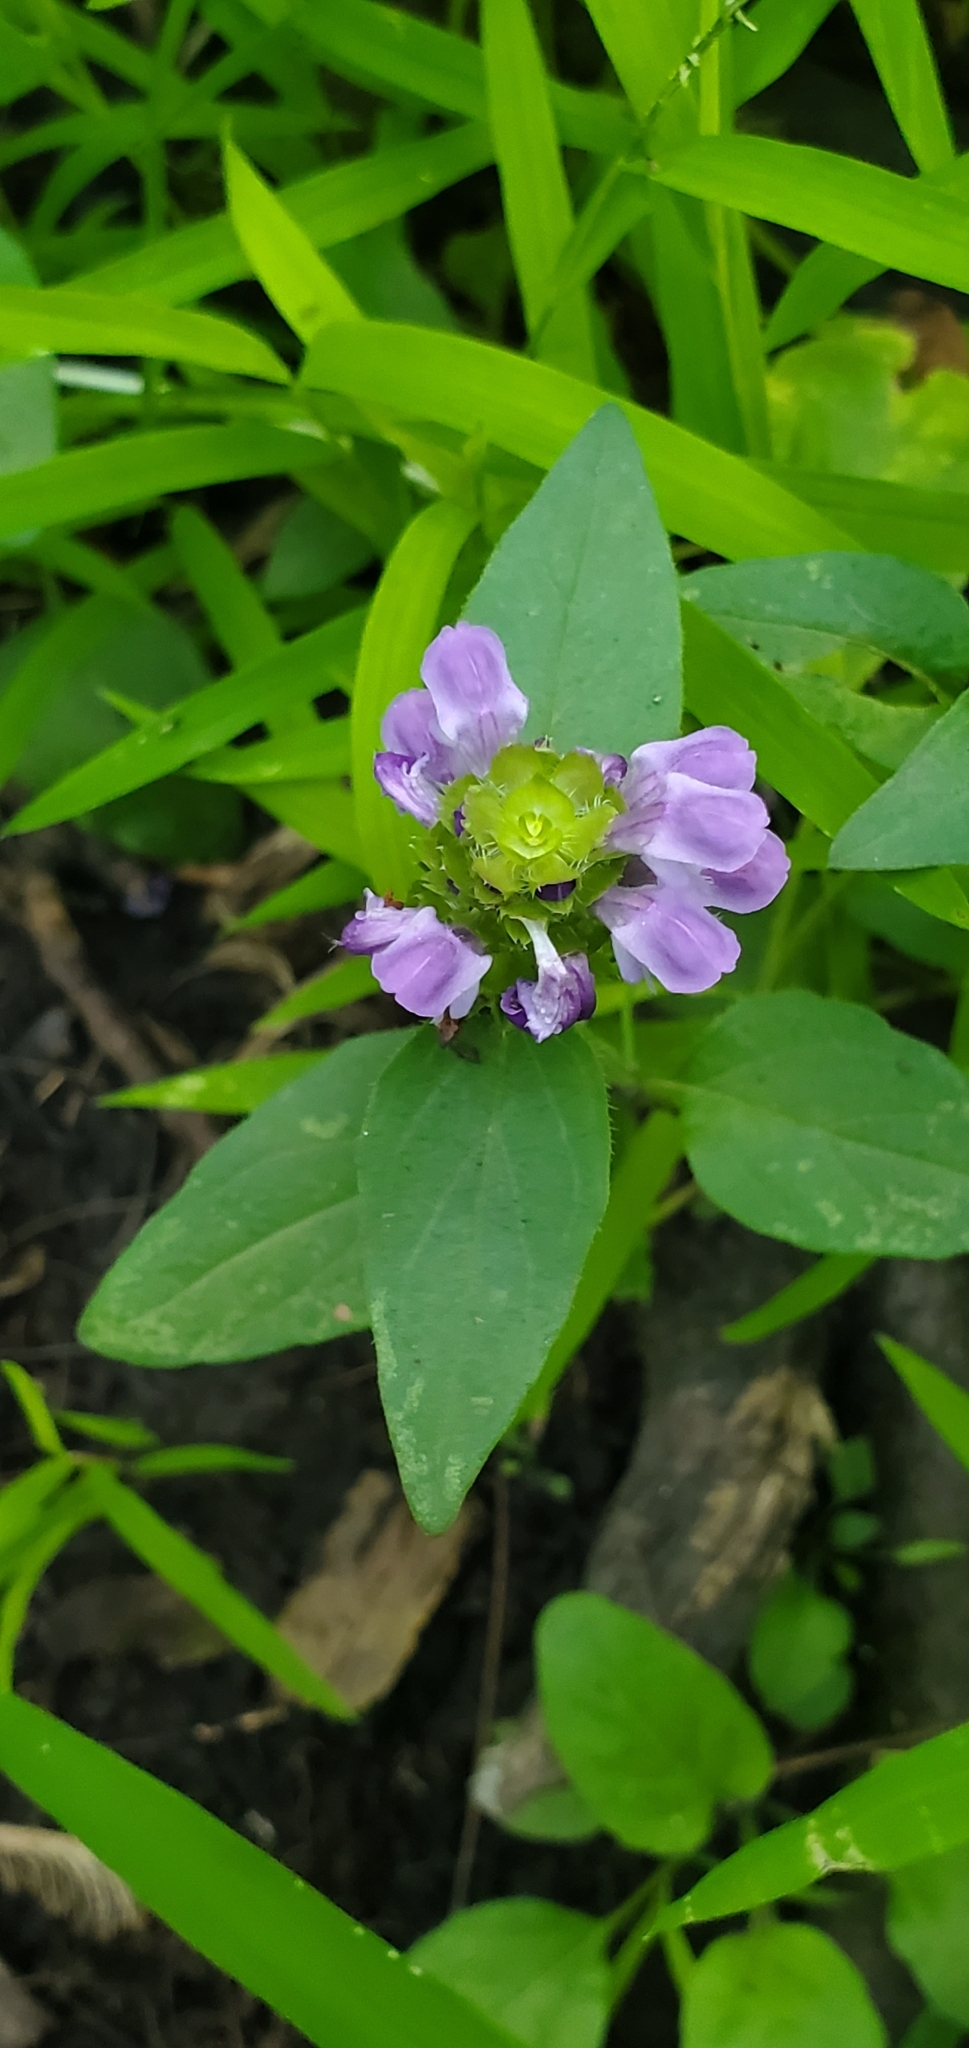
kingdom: Plantae
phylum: Tracheophyta
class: Magnoliopsida
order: Lamiales
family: Lamiaceae
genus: Prunella
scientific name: Prunella vulgaris
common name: Heal-all
